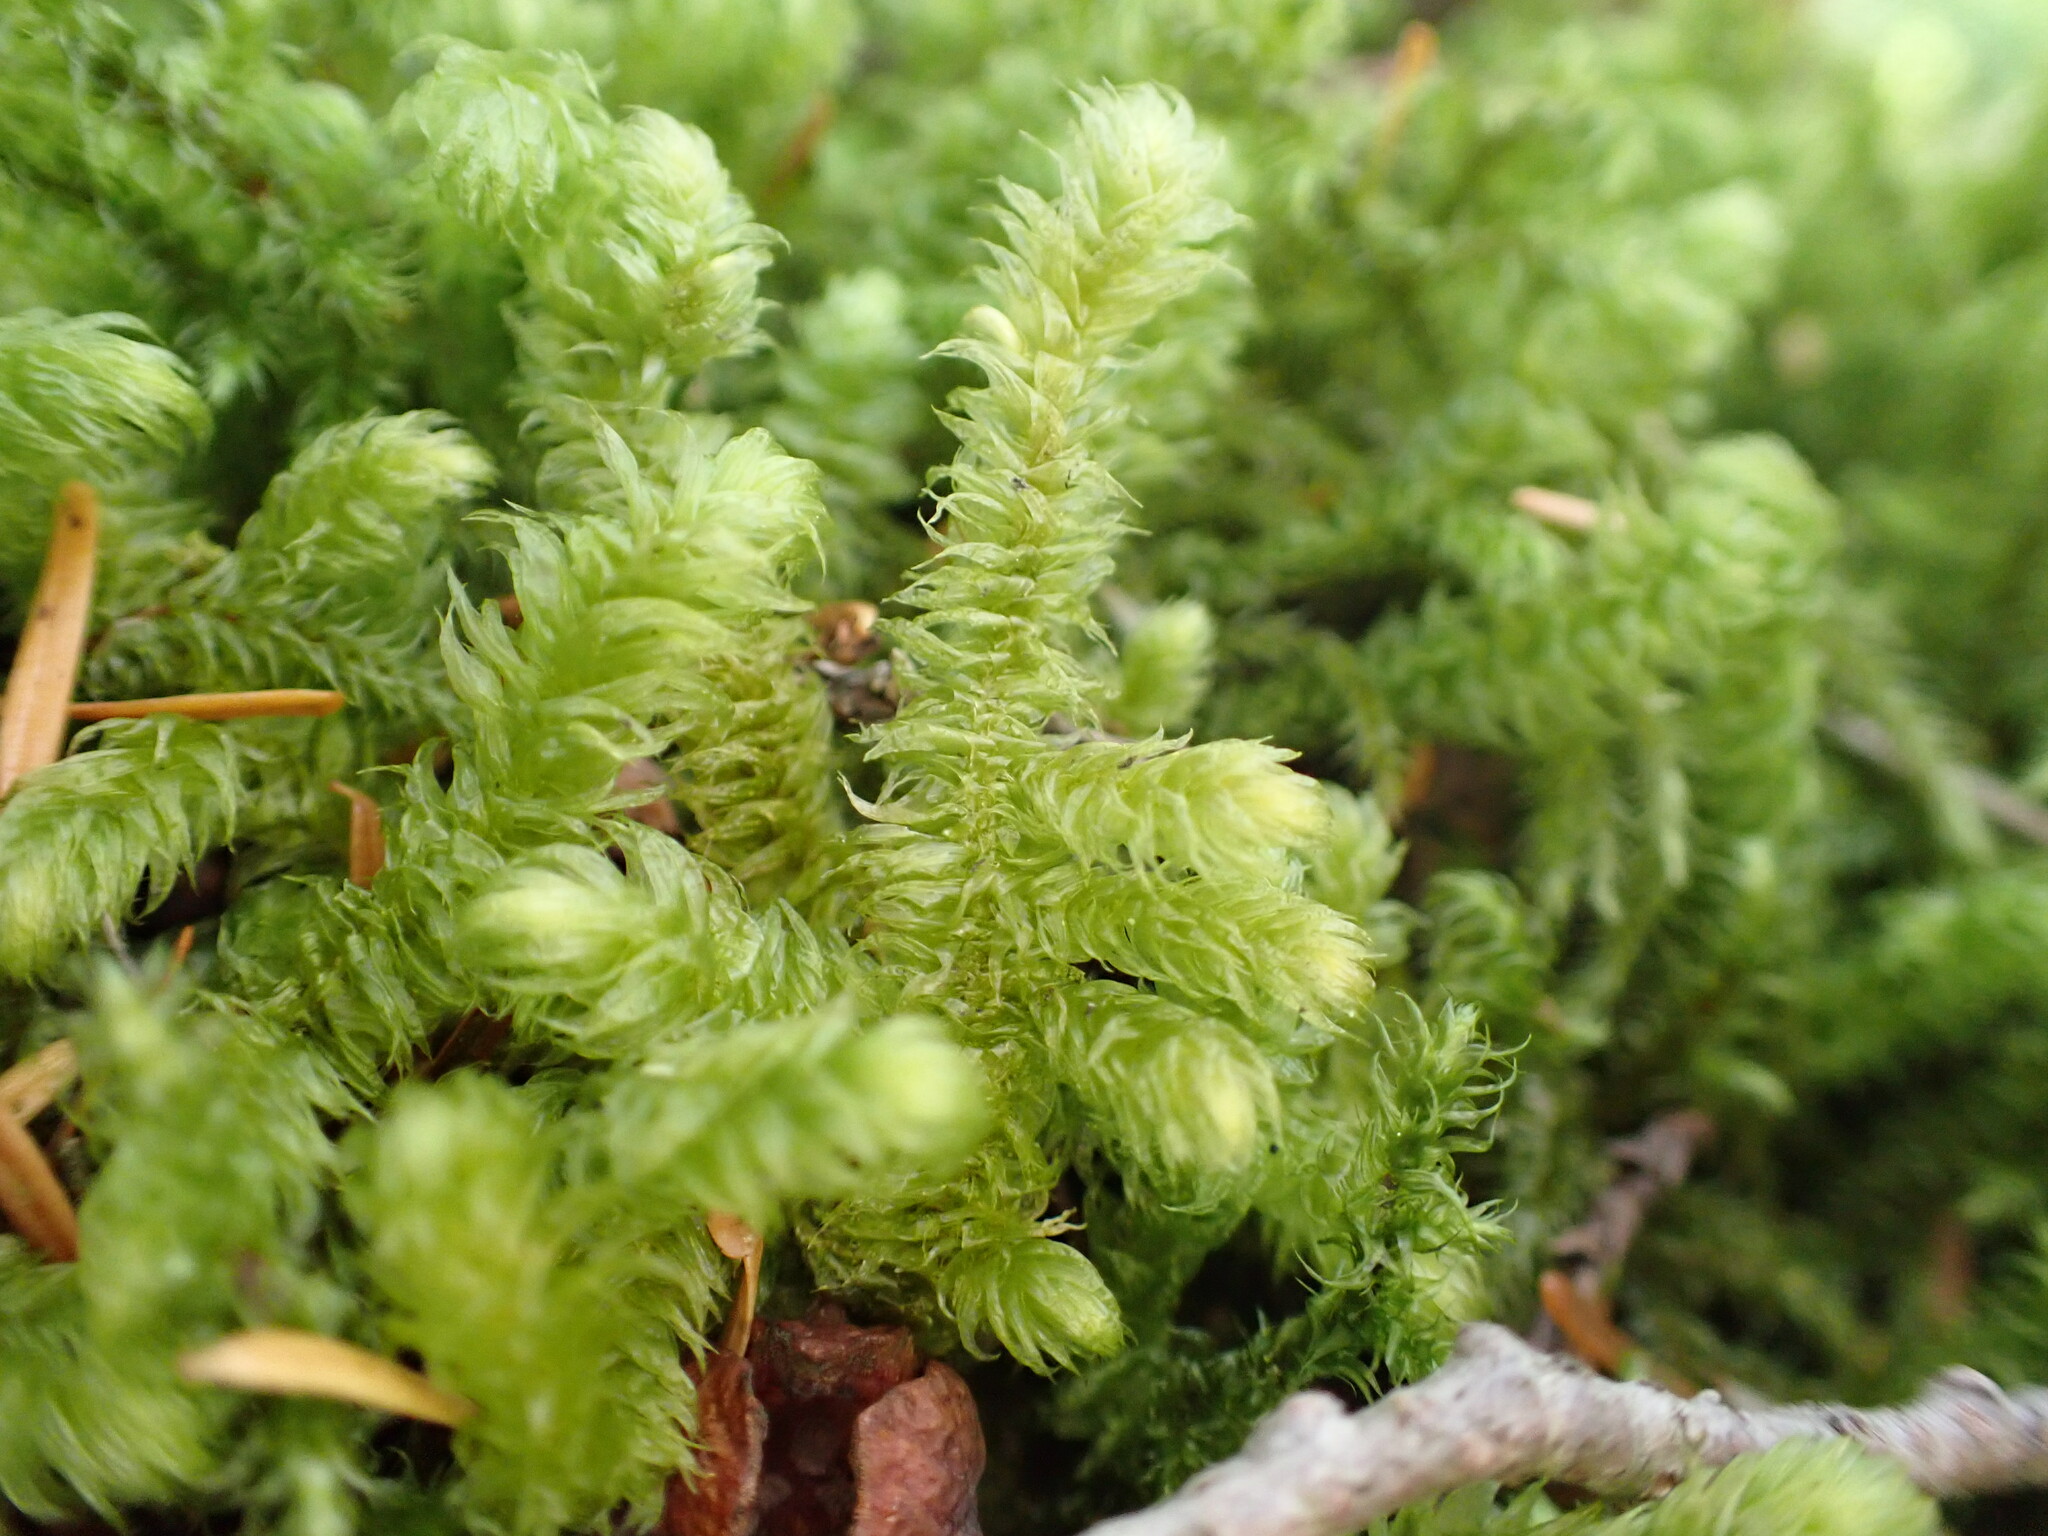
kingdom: Plantae
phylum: Bryophyta
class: Bryopsida
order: Hypnales
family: Hylocomiaceae
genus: Rhytidiopsis
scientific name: Rhytidiopsis robusta
